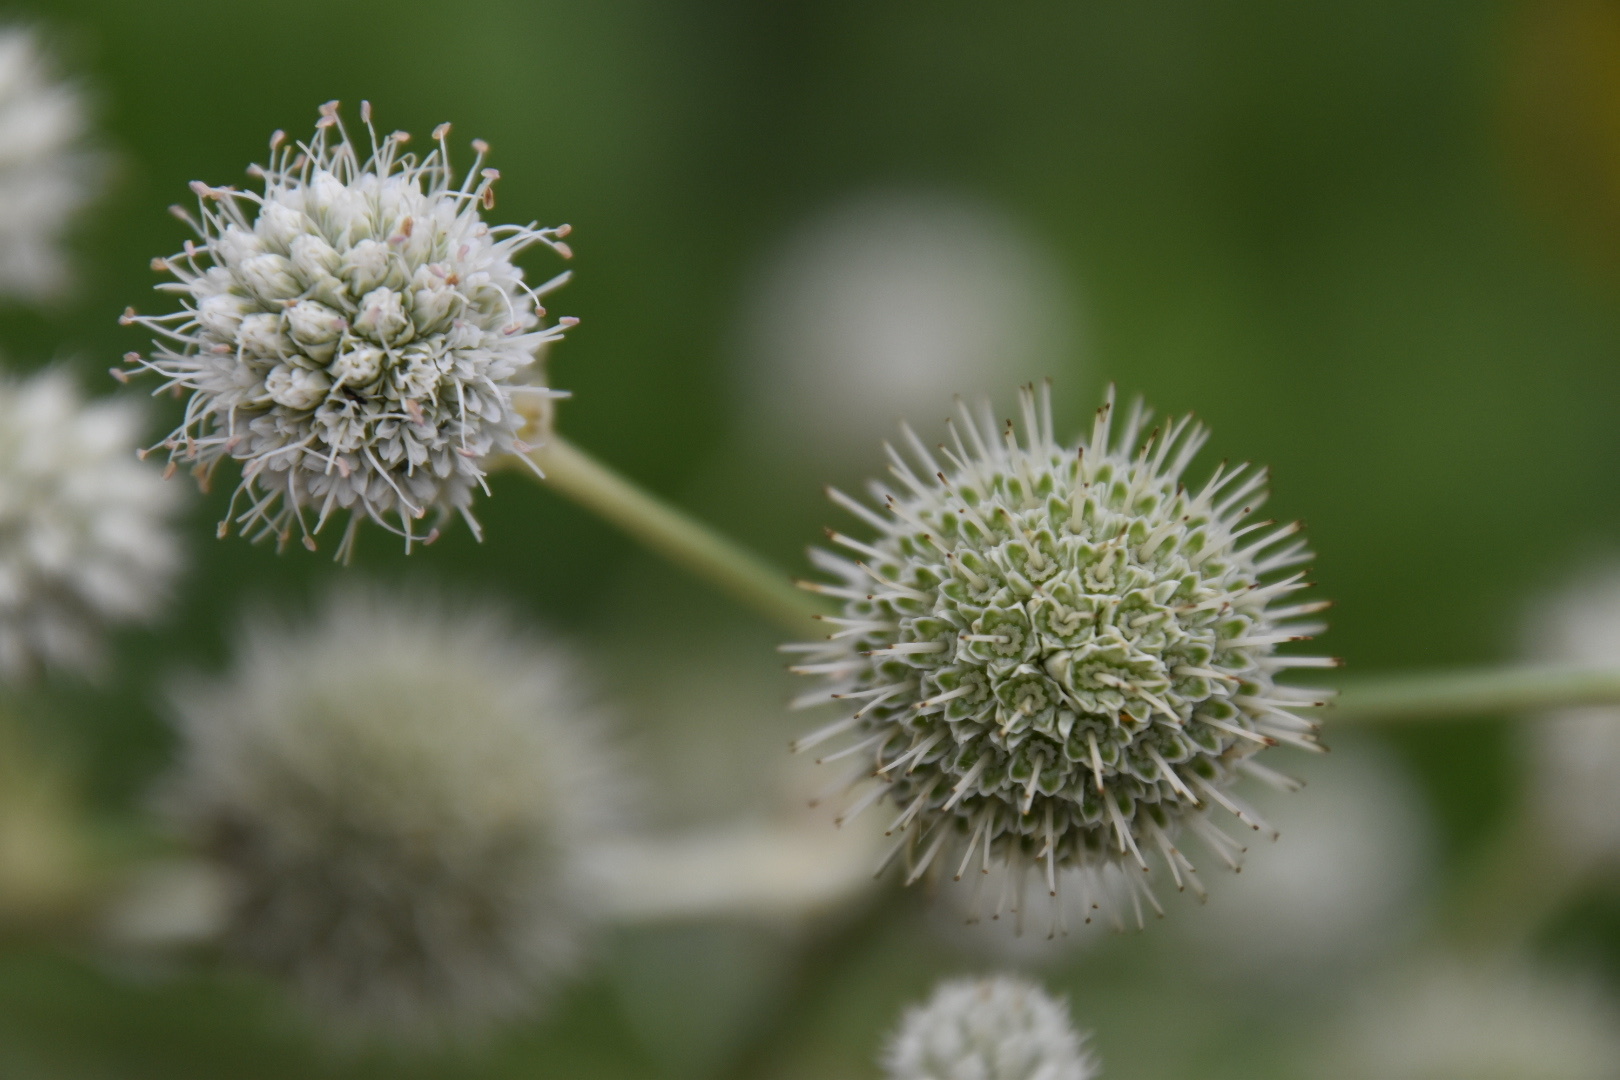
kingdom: Plantae
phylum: Tracheophyta
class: Magnoliopsida
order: Apiales
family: Apiaceae
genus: Eryngium
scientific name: Eryngium yuccifolium
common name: Button eryngo
